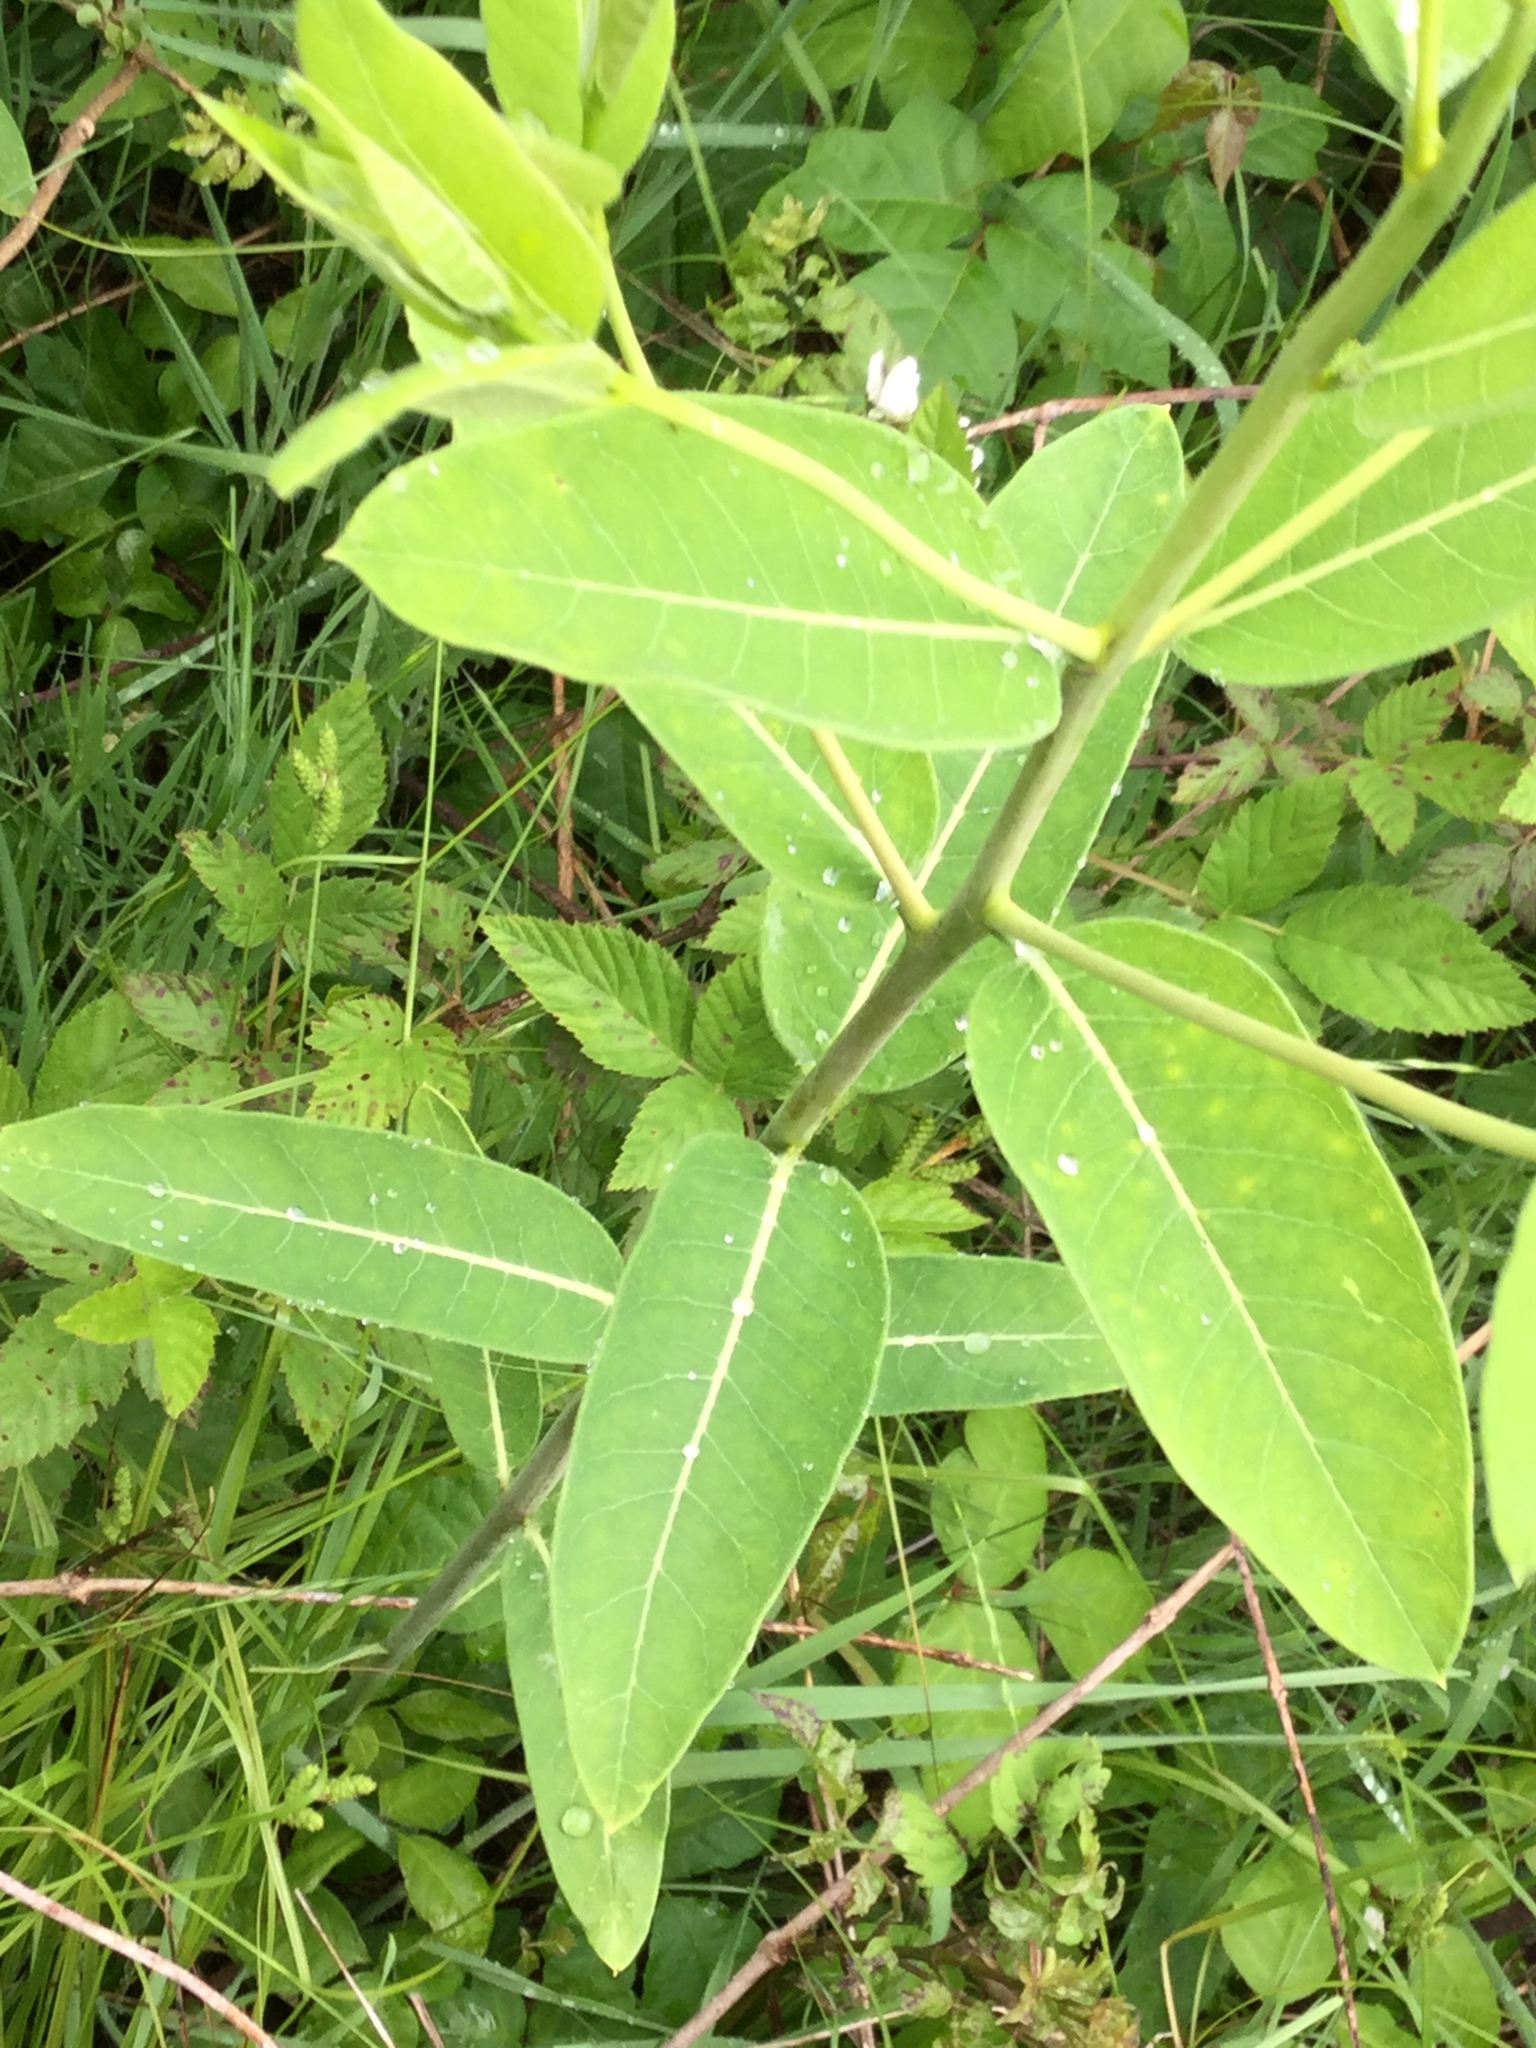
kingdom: Plantae
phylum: Tracheophyta
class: Magnoliopsida
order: Gentianales
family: Apocynaceae
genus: Apocynum
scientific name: Apocynum cannabinum
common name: Hemp dogbane
